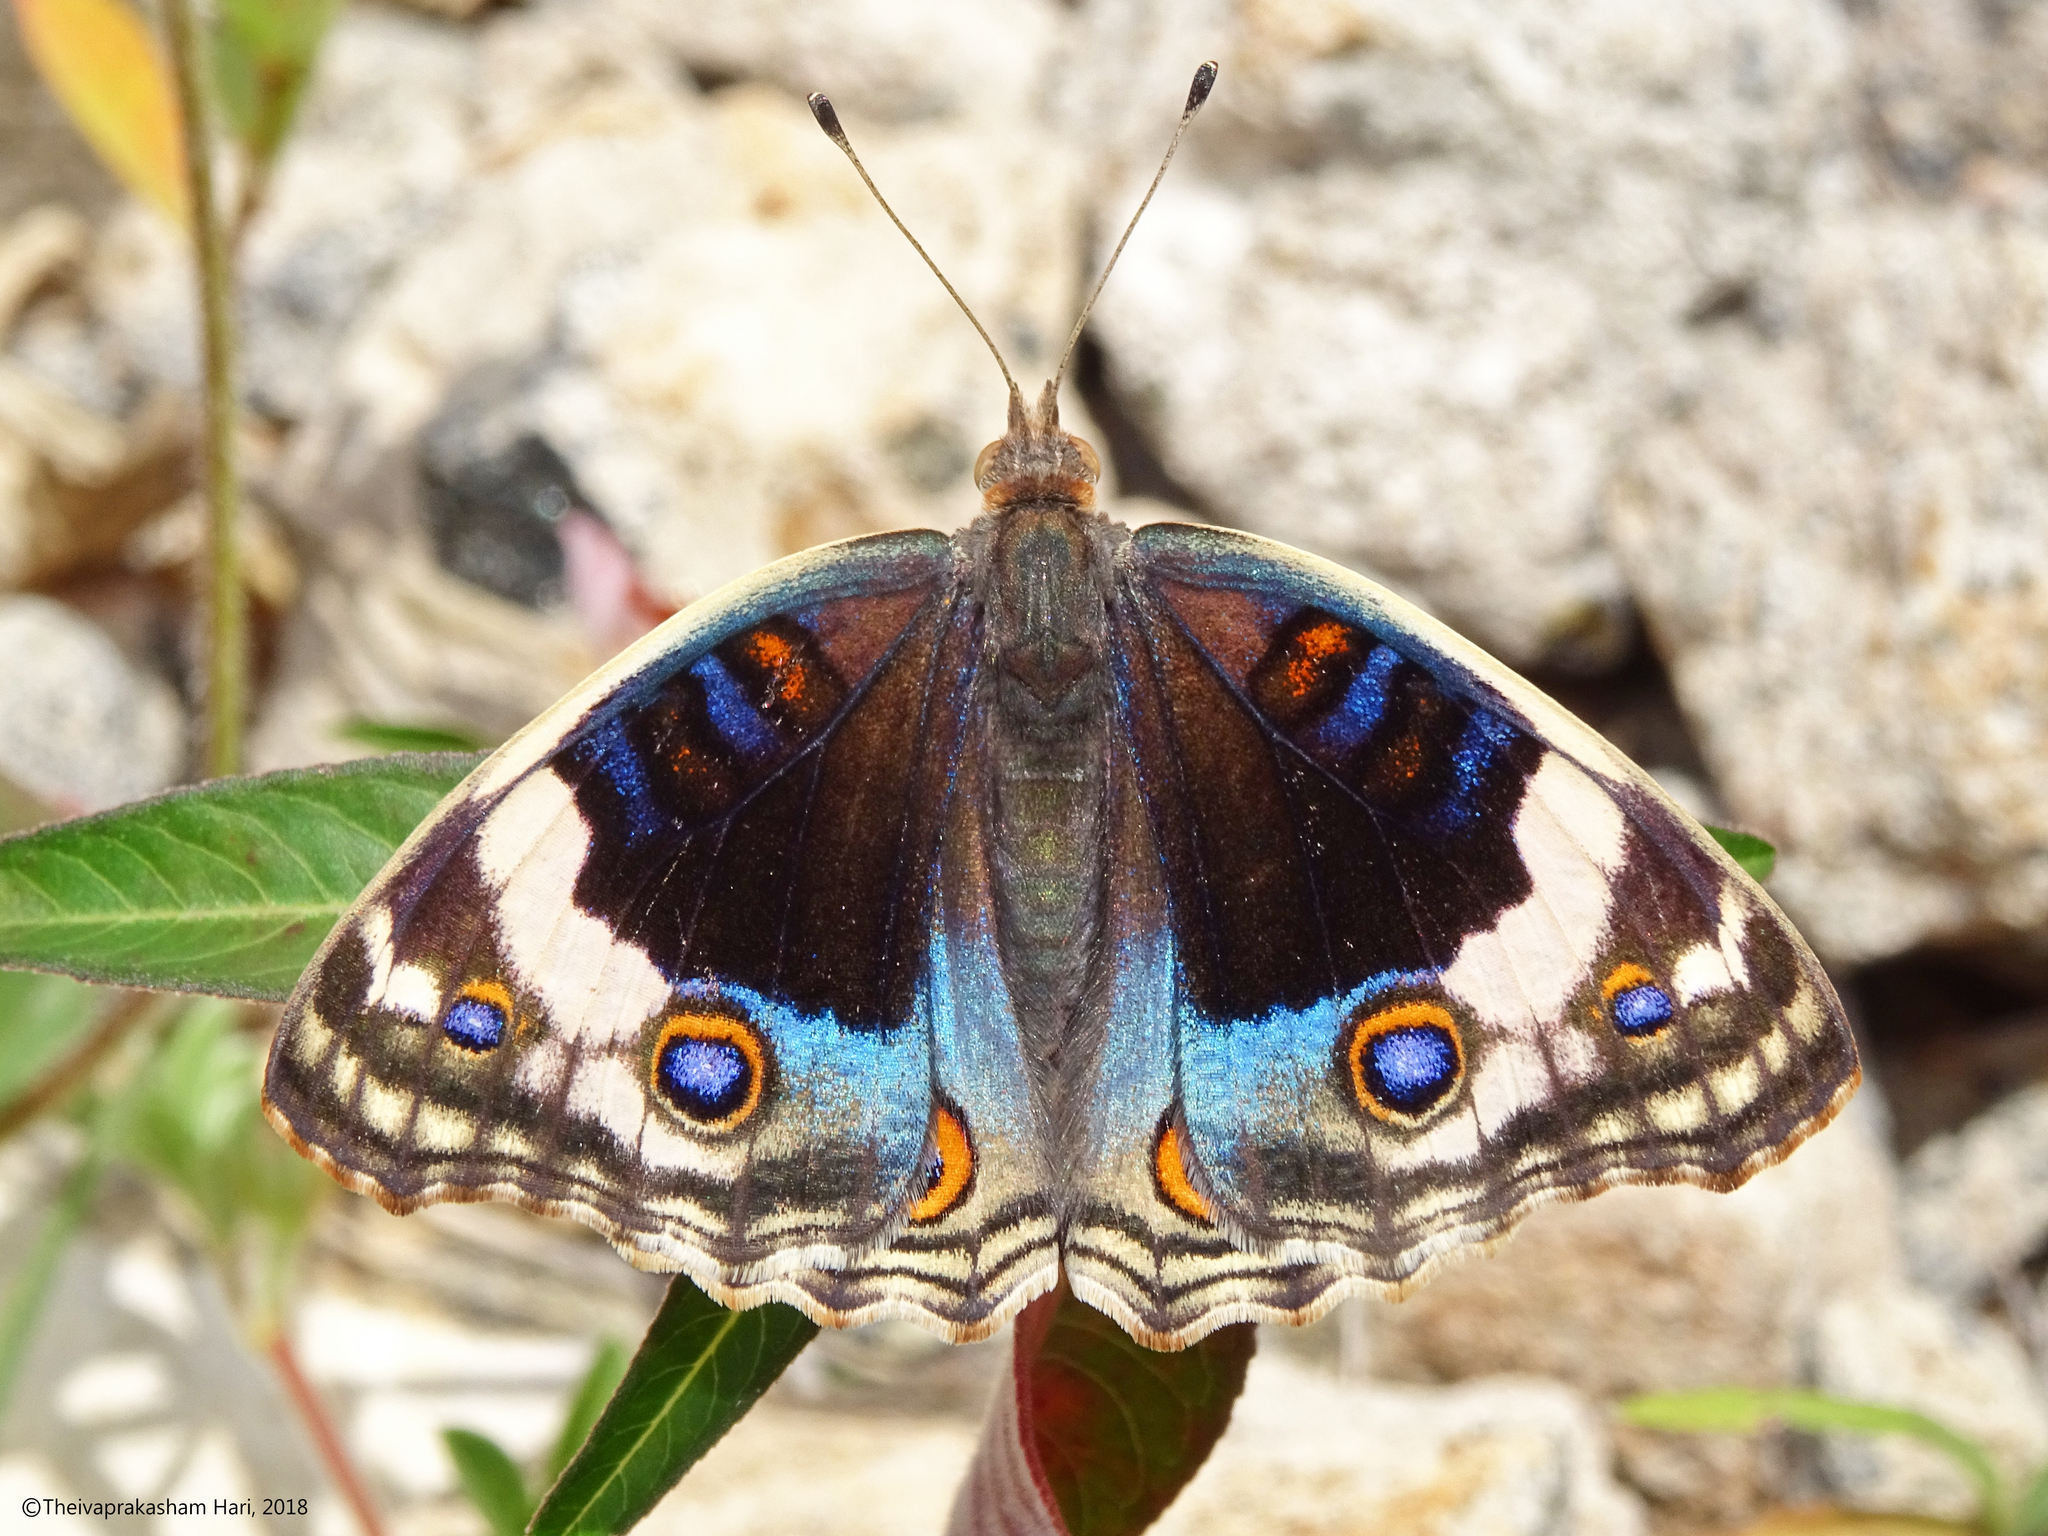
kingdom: Animalia
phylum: Arthropoda
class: Insecta
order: Lepidoptera
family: Nymphalidae
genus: Junonia
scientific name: Junonia orithya
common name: Blue pansy
